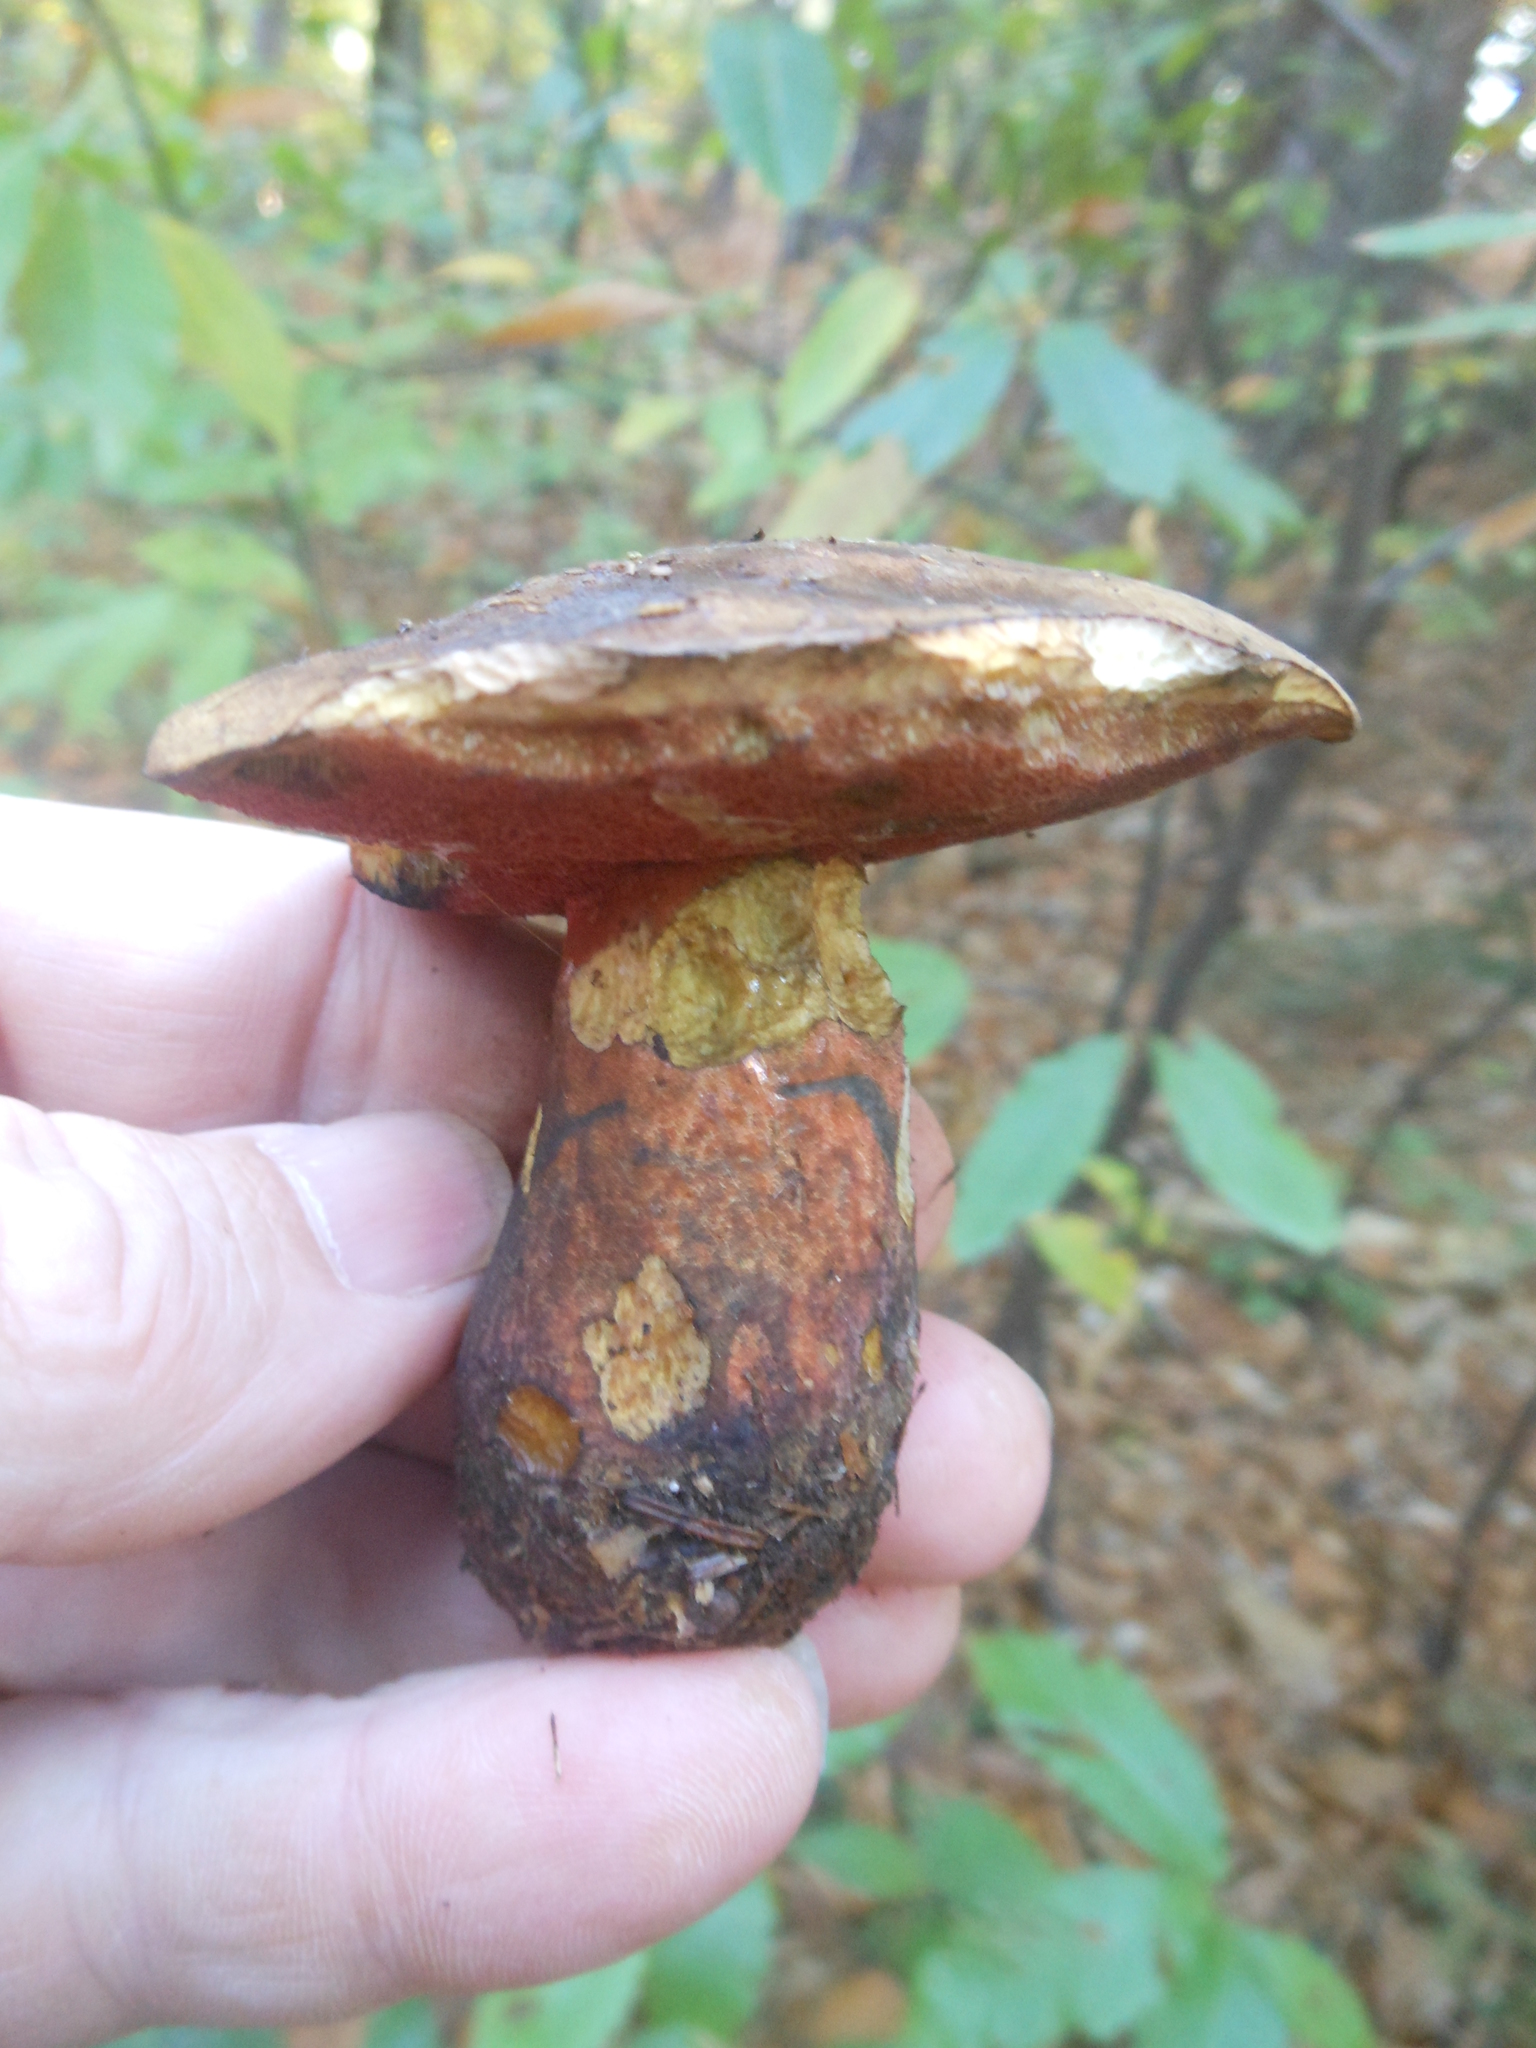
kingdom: Fungi
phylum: Basidiomycota
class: Agaricomycetes
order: Boletales
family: Boletaceae
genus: Neoboletus
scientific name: Neoboletus luridiformis
